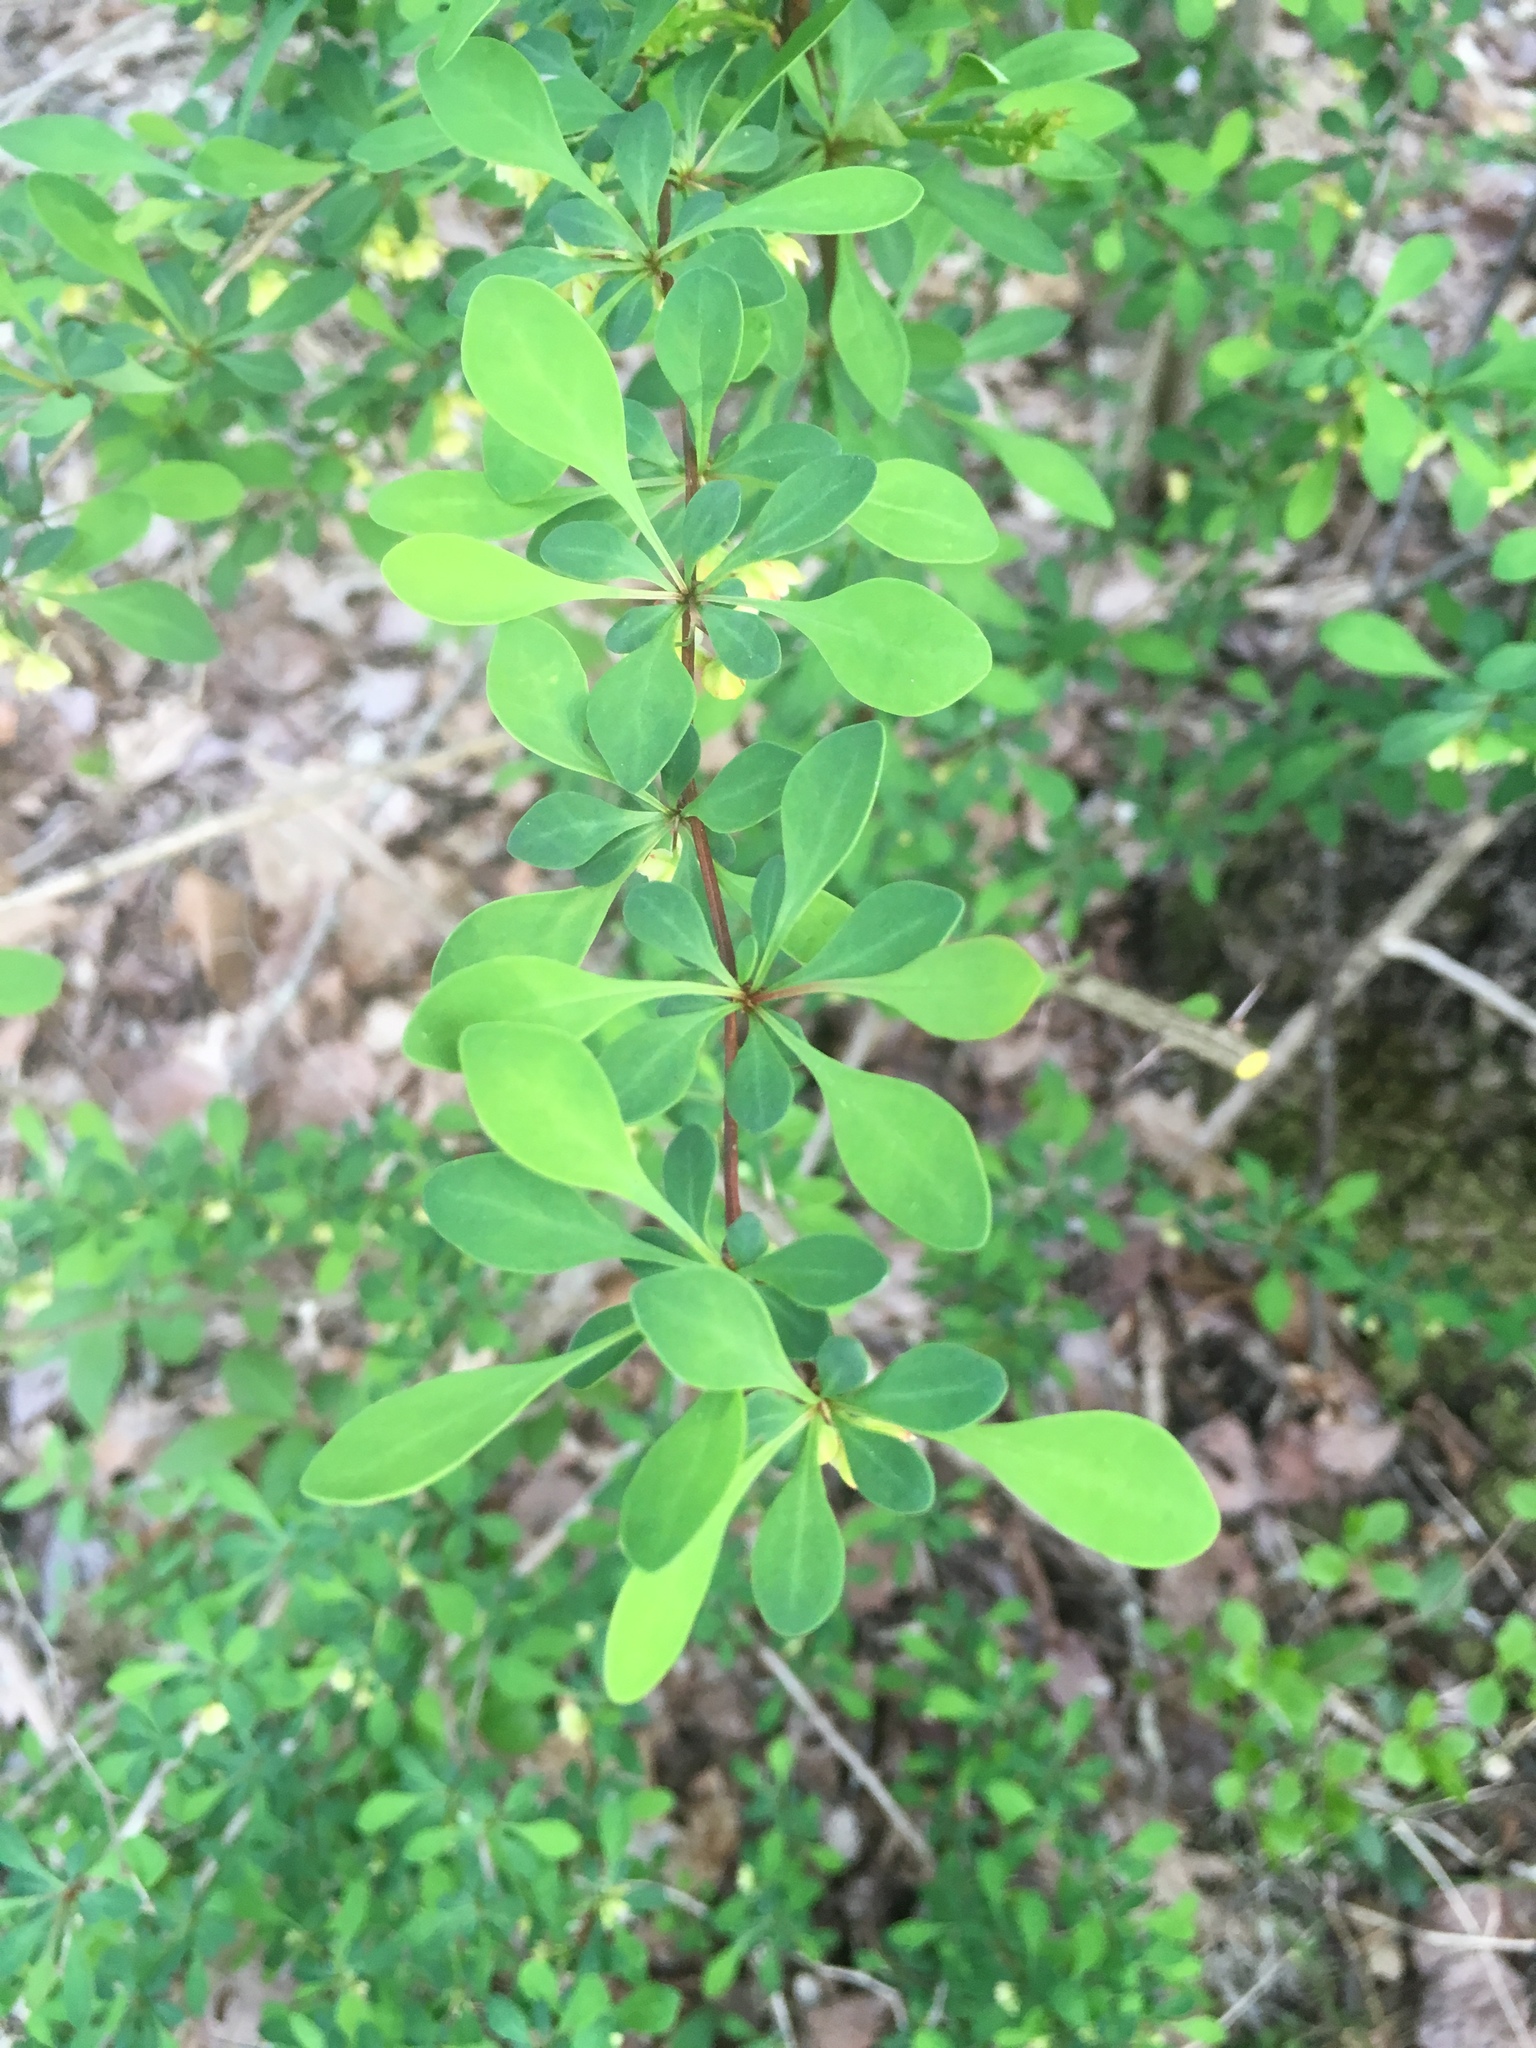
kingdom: Plantae
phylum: Tracheophyta
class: Magnoliopsida
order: Ranunculales
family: Berberidaceae
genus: Berberis
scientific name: Berberis thunbergii
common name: Japanese barberry
